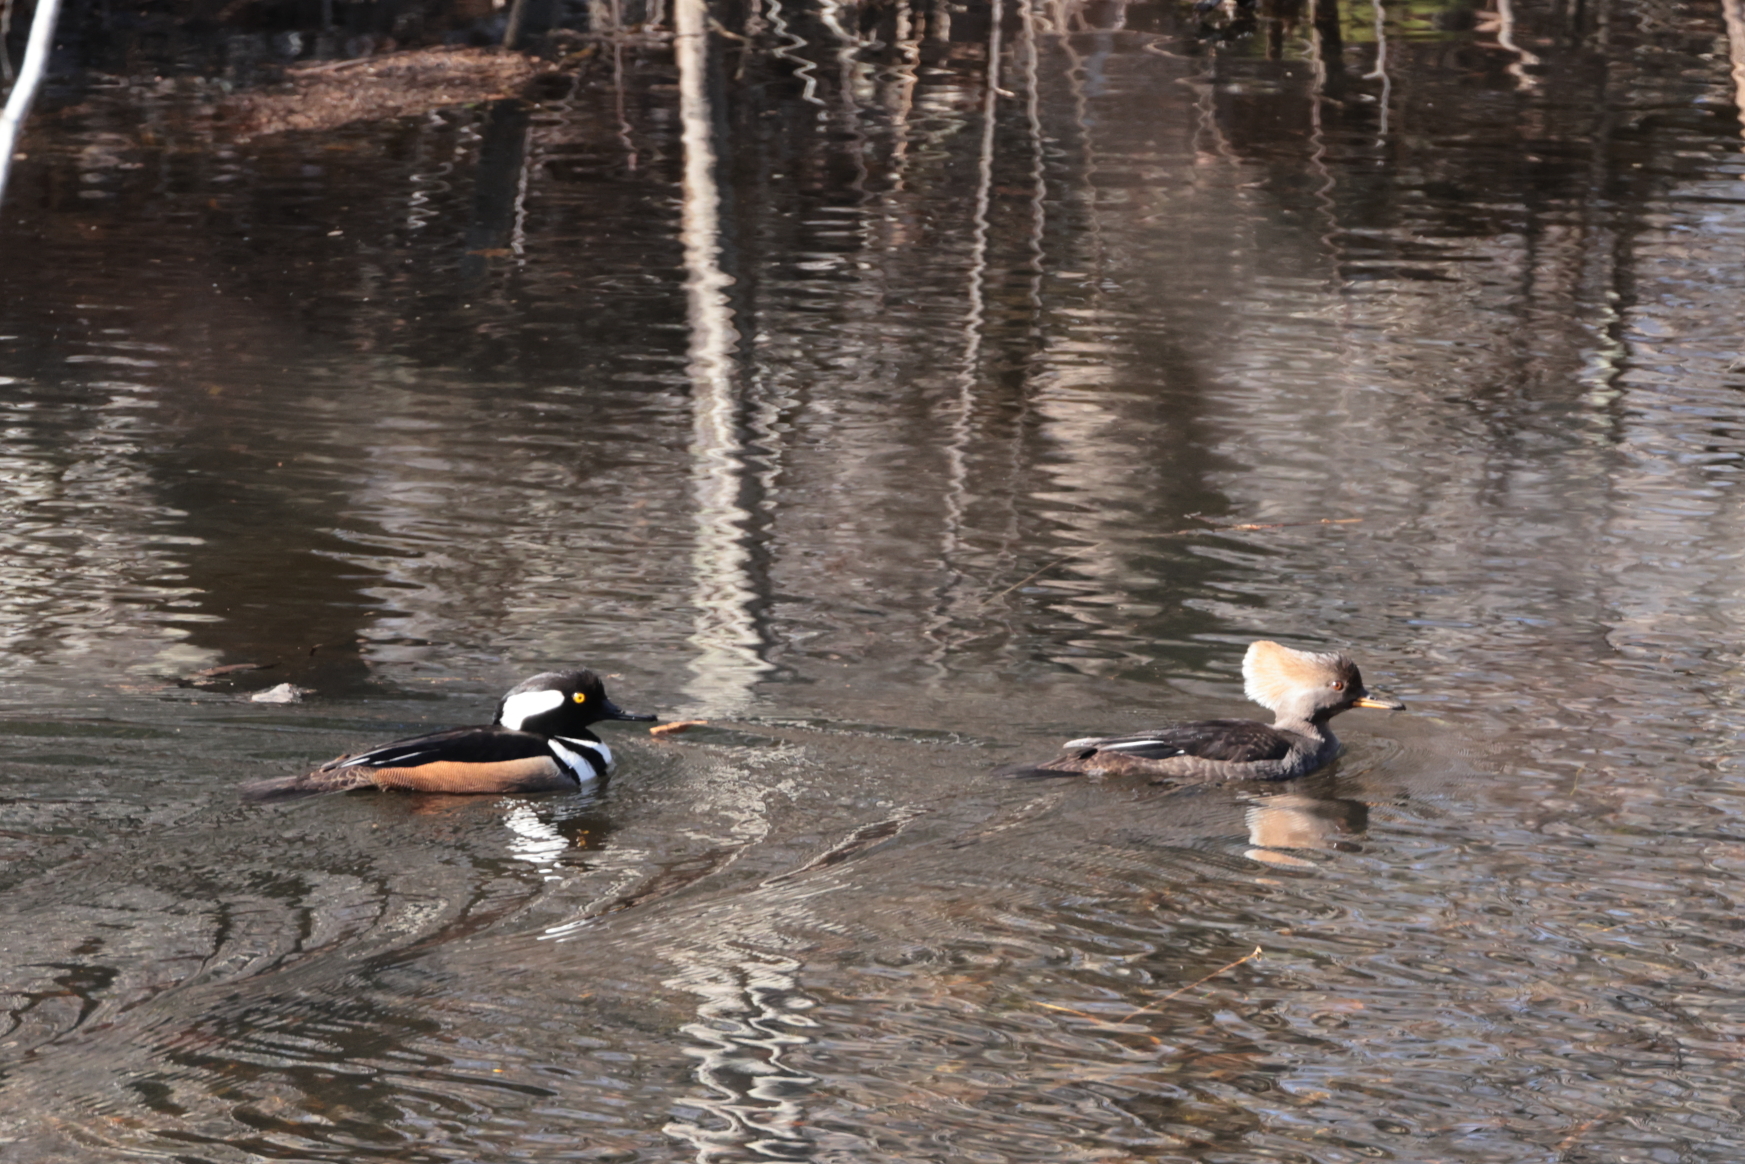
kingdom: Animalia
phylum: Chordata
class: Aves
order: Anseriformes
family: Anatidae
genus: Lophodytes
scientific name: Lophodytes cucullatus
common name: Hooded merganser
